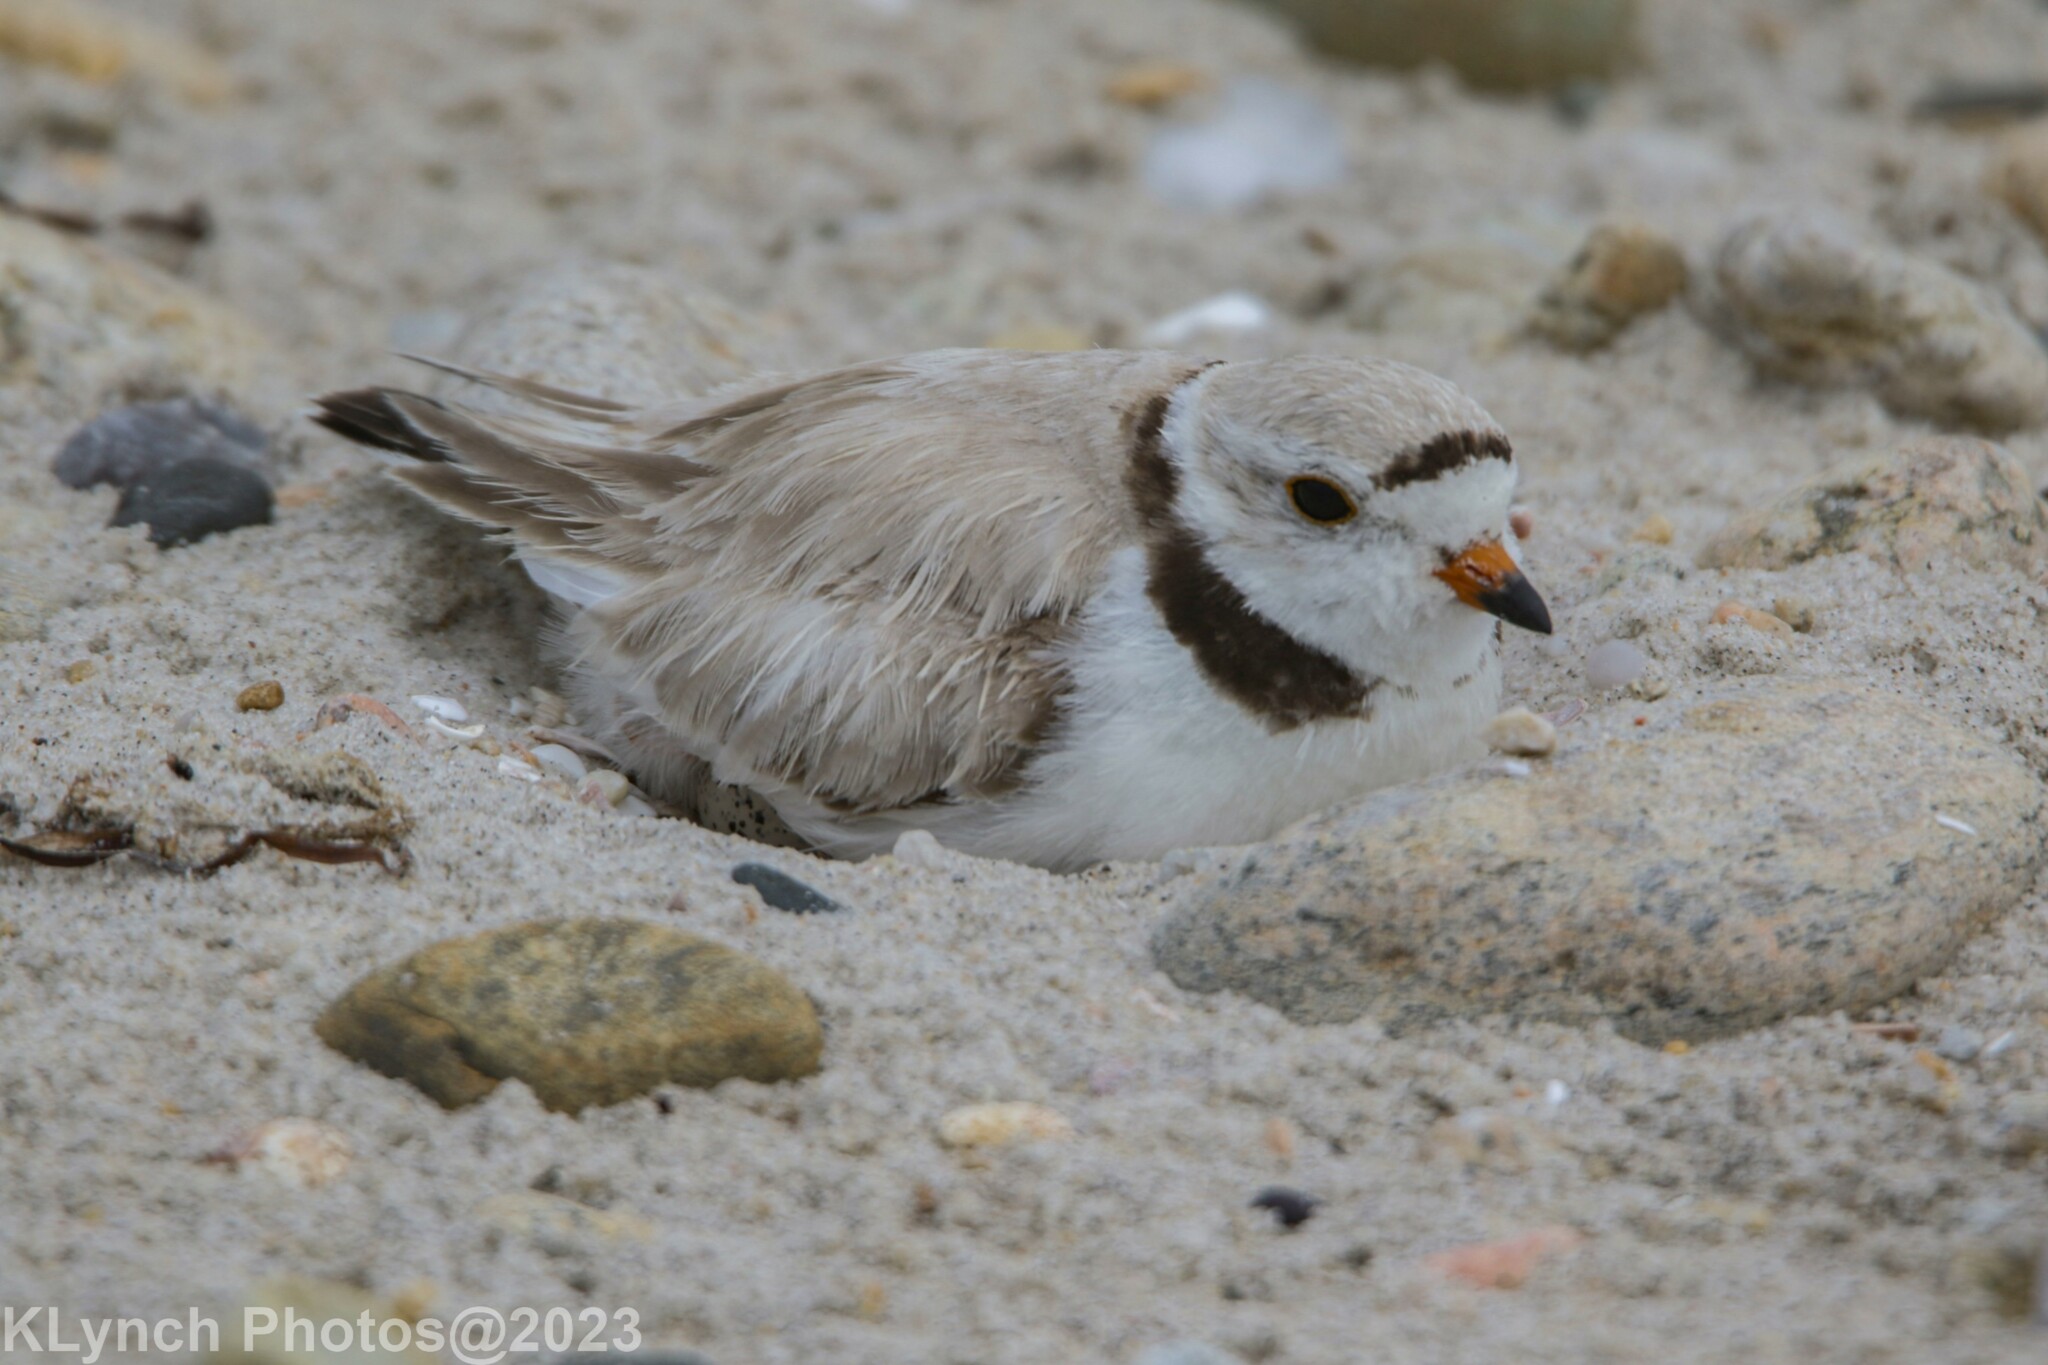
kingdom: Animalia
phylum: Chordata
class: Aves
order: Charadriiformes
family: Charadriidae
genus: Charadrius
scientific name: Charadrius melodus
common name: Piping plover
